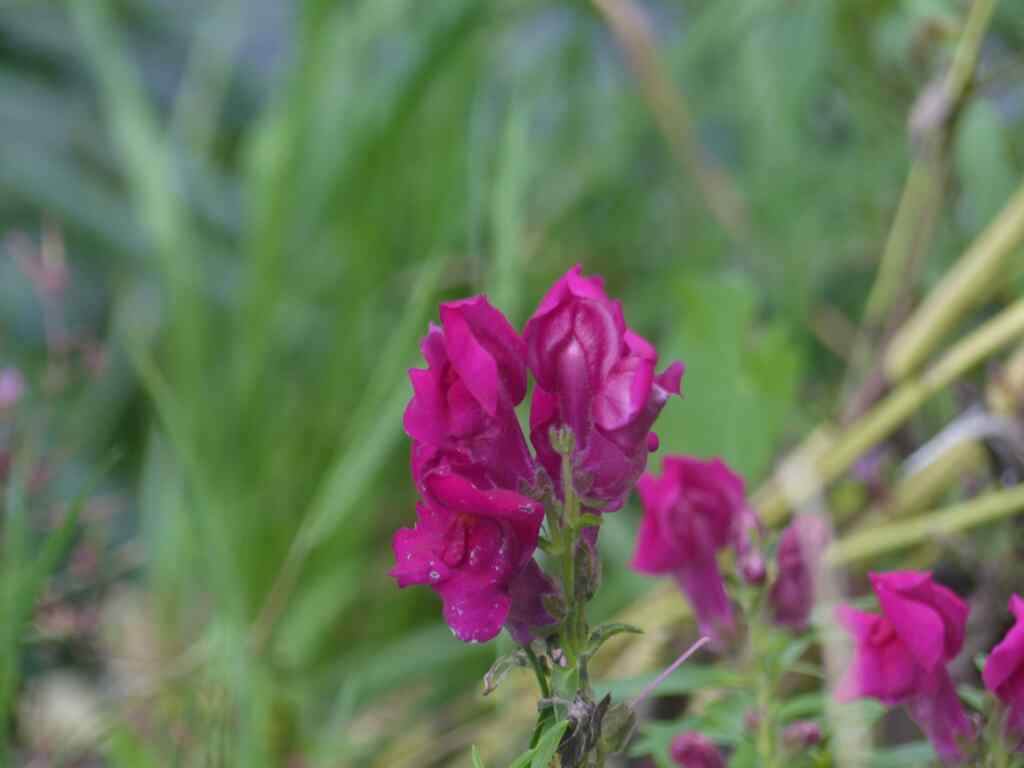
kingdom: Plantae
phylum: Tracheophyta
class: Magnoliopsida
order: Lamiales
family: Plantaginaceae
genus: Antirrhinum
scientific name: Antirrhinum majus
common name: Snapdragon
